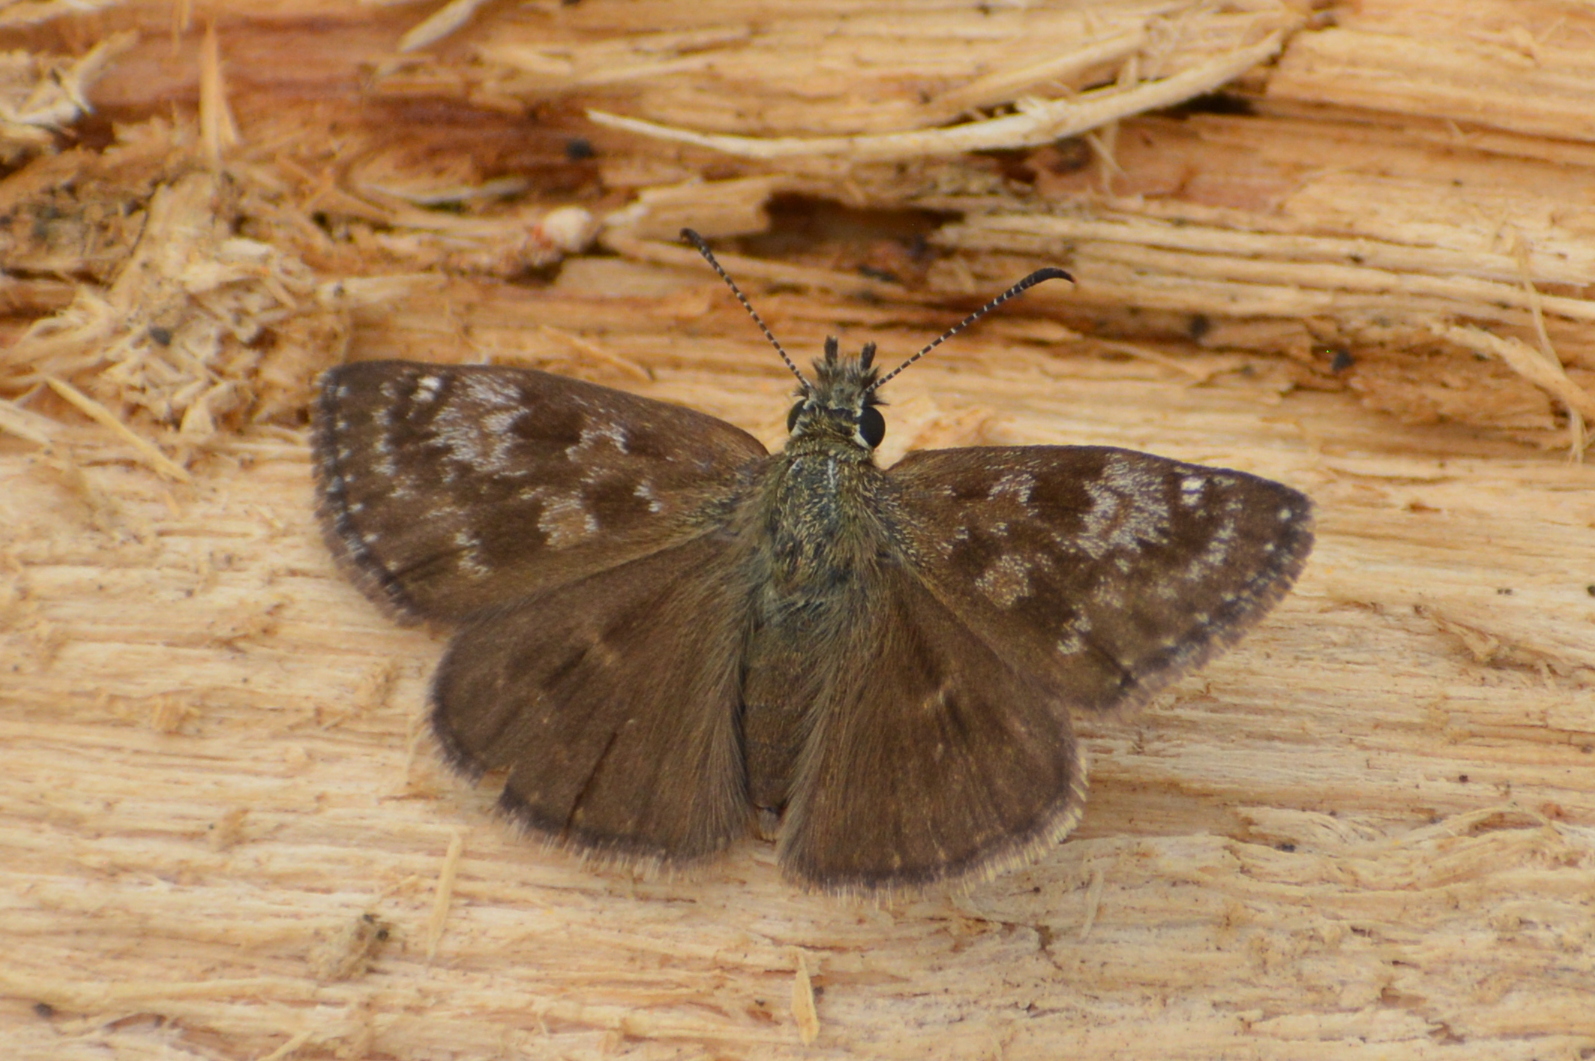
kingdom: Animalia
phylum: Arthropoda
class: Insecta
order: Lepidoptera
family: Hesperiidae
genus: Erynnis
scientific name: Erynnis tages
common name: Dingy skipper
